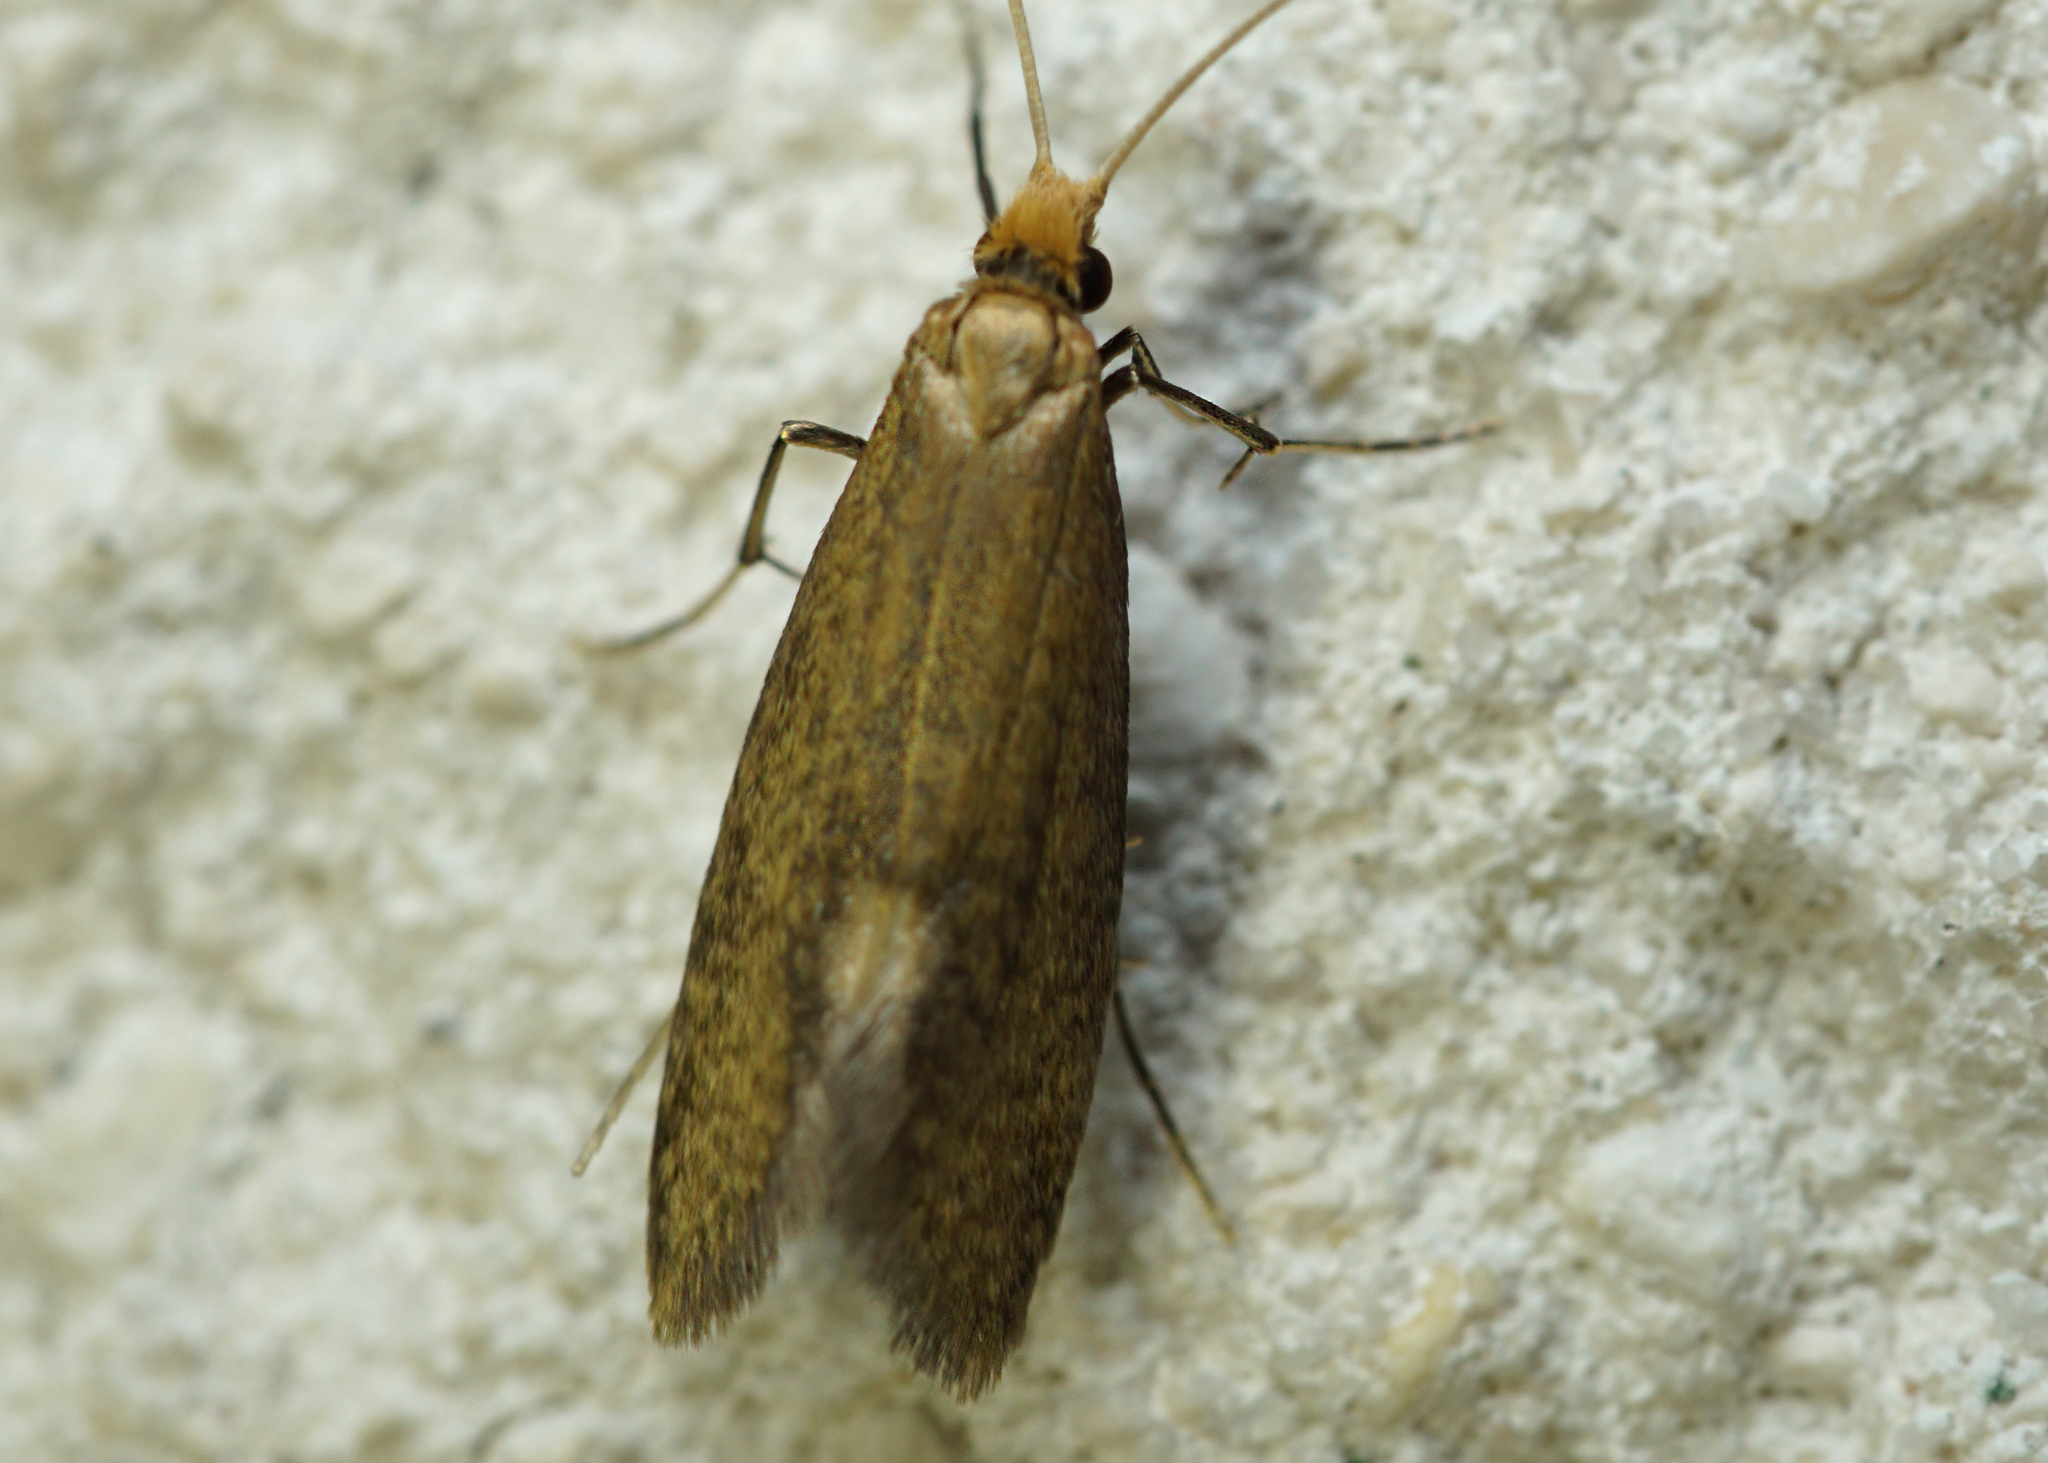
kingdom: Animalia
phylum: Arthropoda
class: Insecta
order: Lepidoptera
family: Adelidae
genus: Nematopogon
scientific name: Nematopogon schwarziellus
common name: Sandy long-horn
